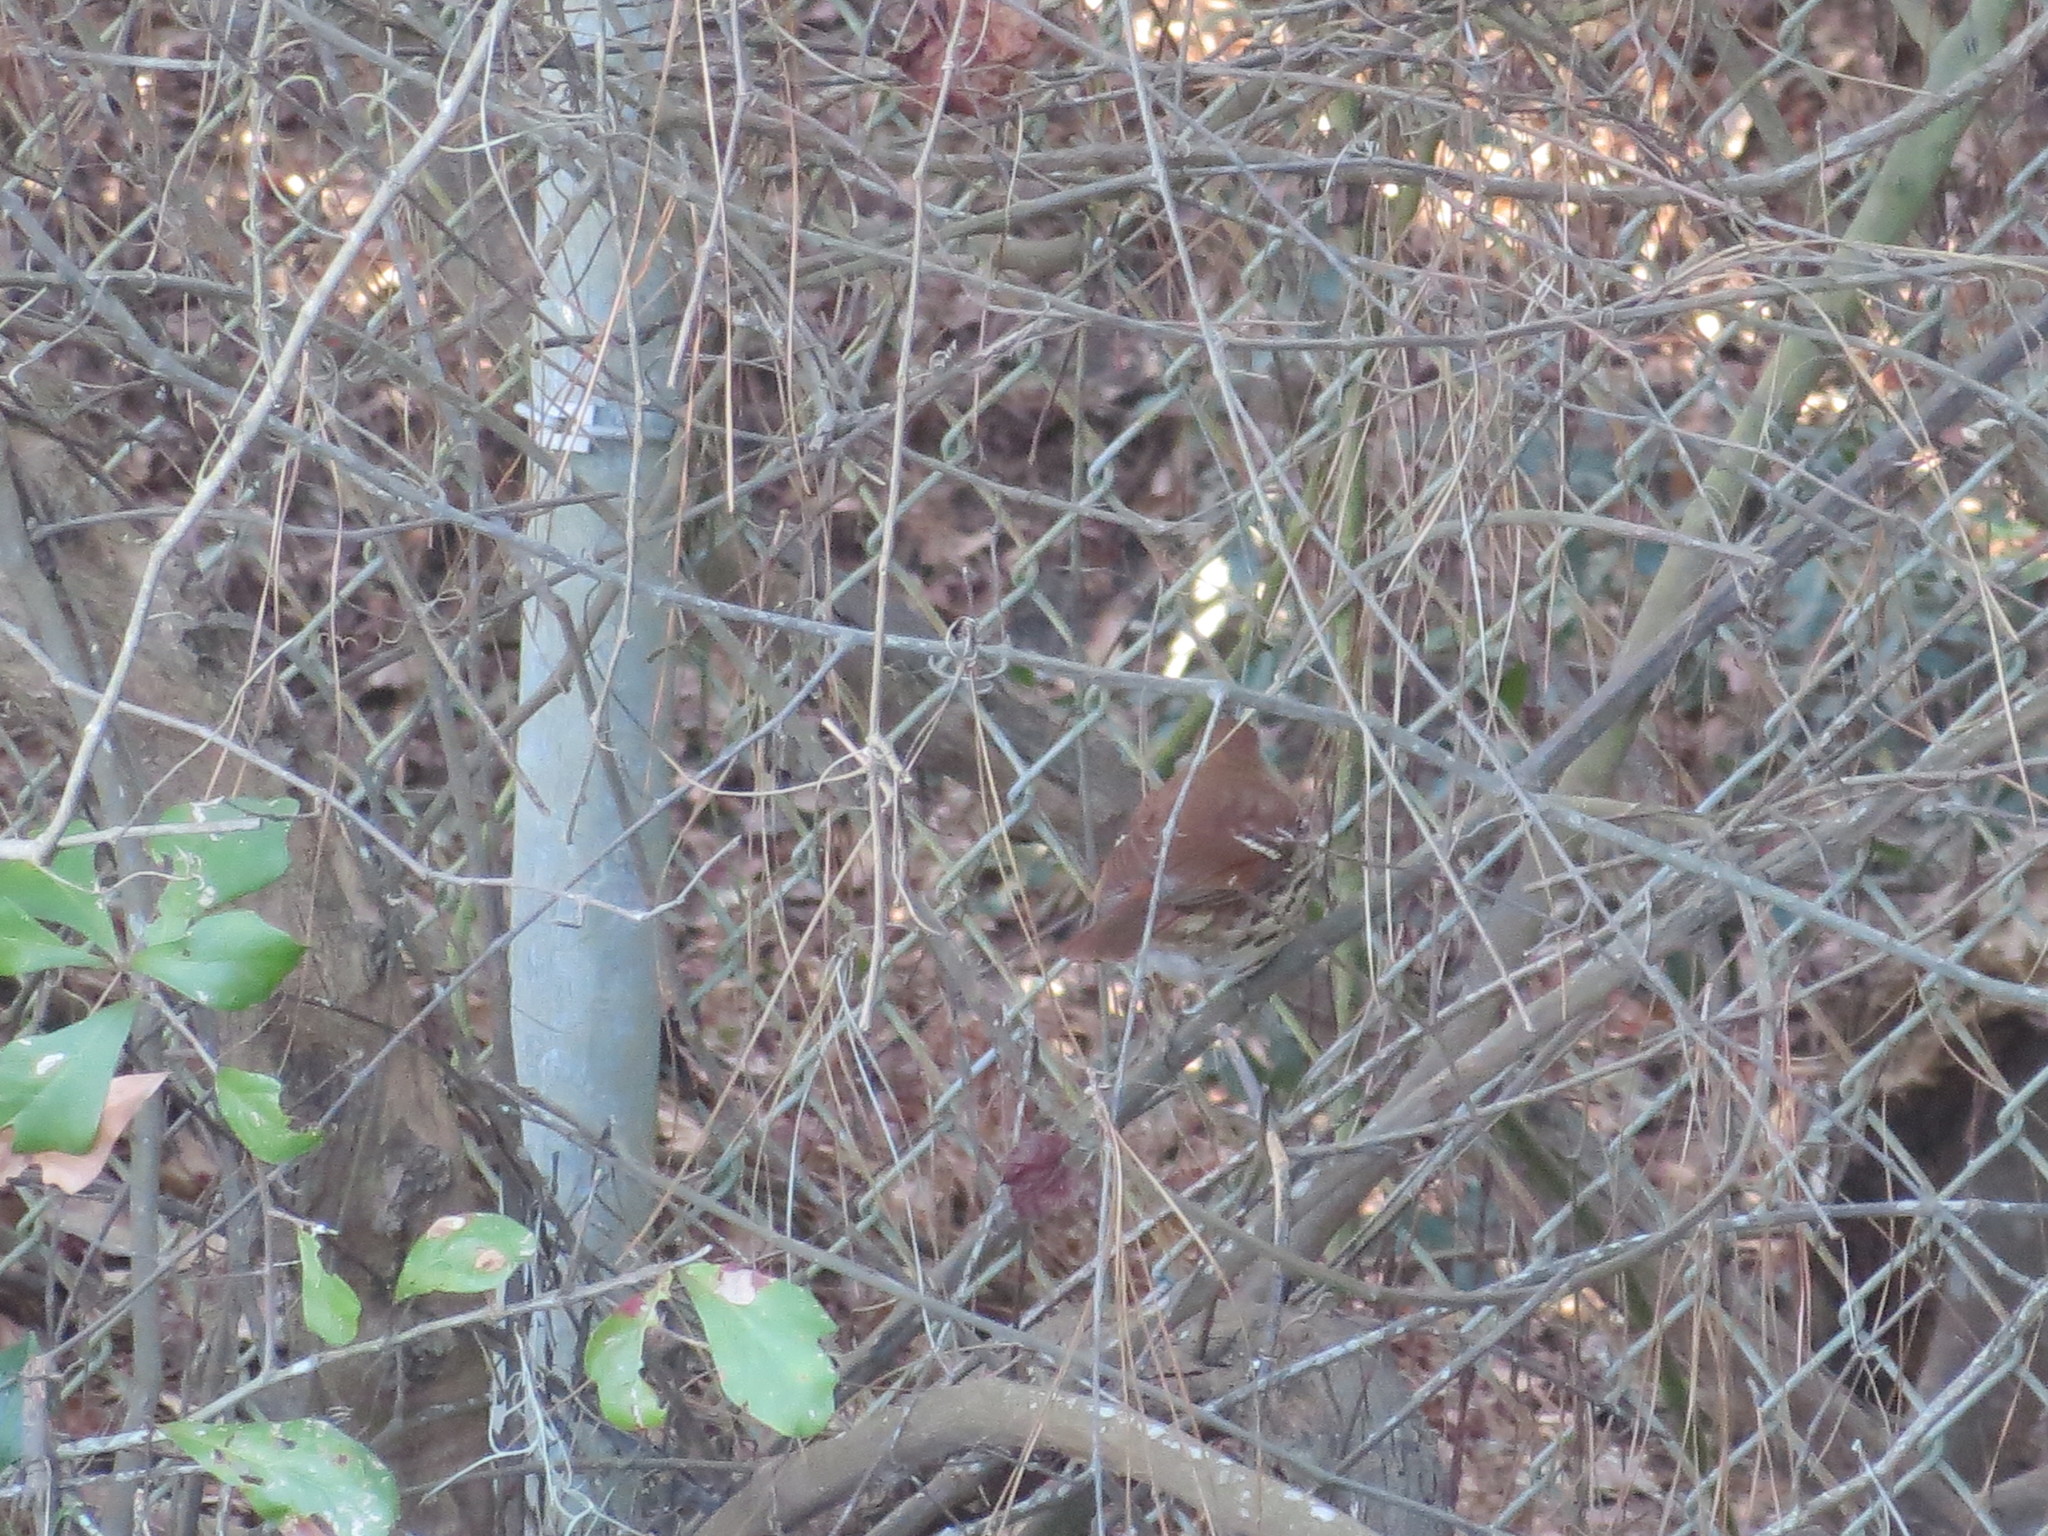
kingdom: Animalia
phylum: Chordata
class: Aves
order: Passeriformes
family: Mimidae
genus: Toxostoma
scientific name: Toxostoma rufum
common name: Brown thrasher
